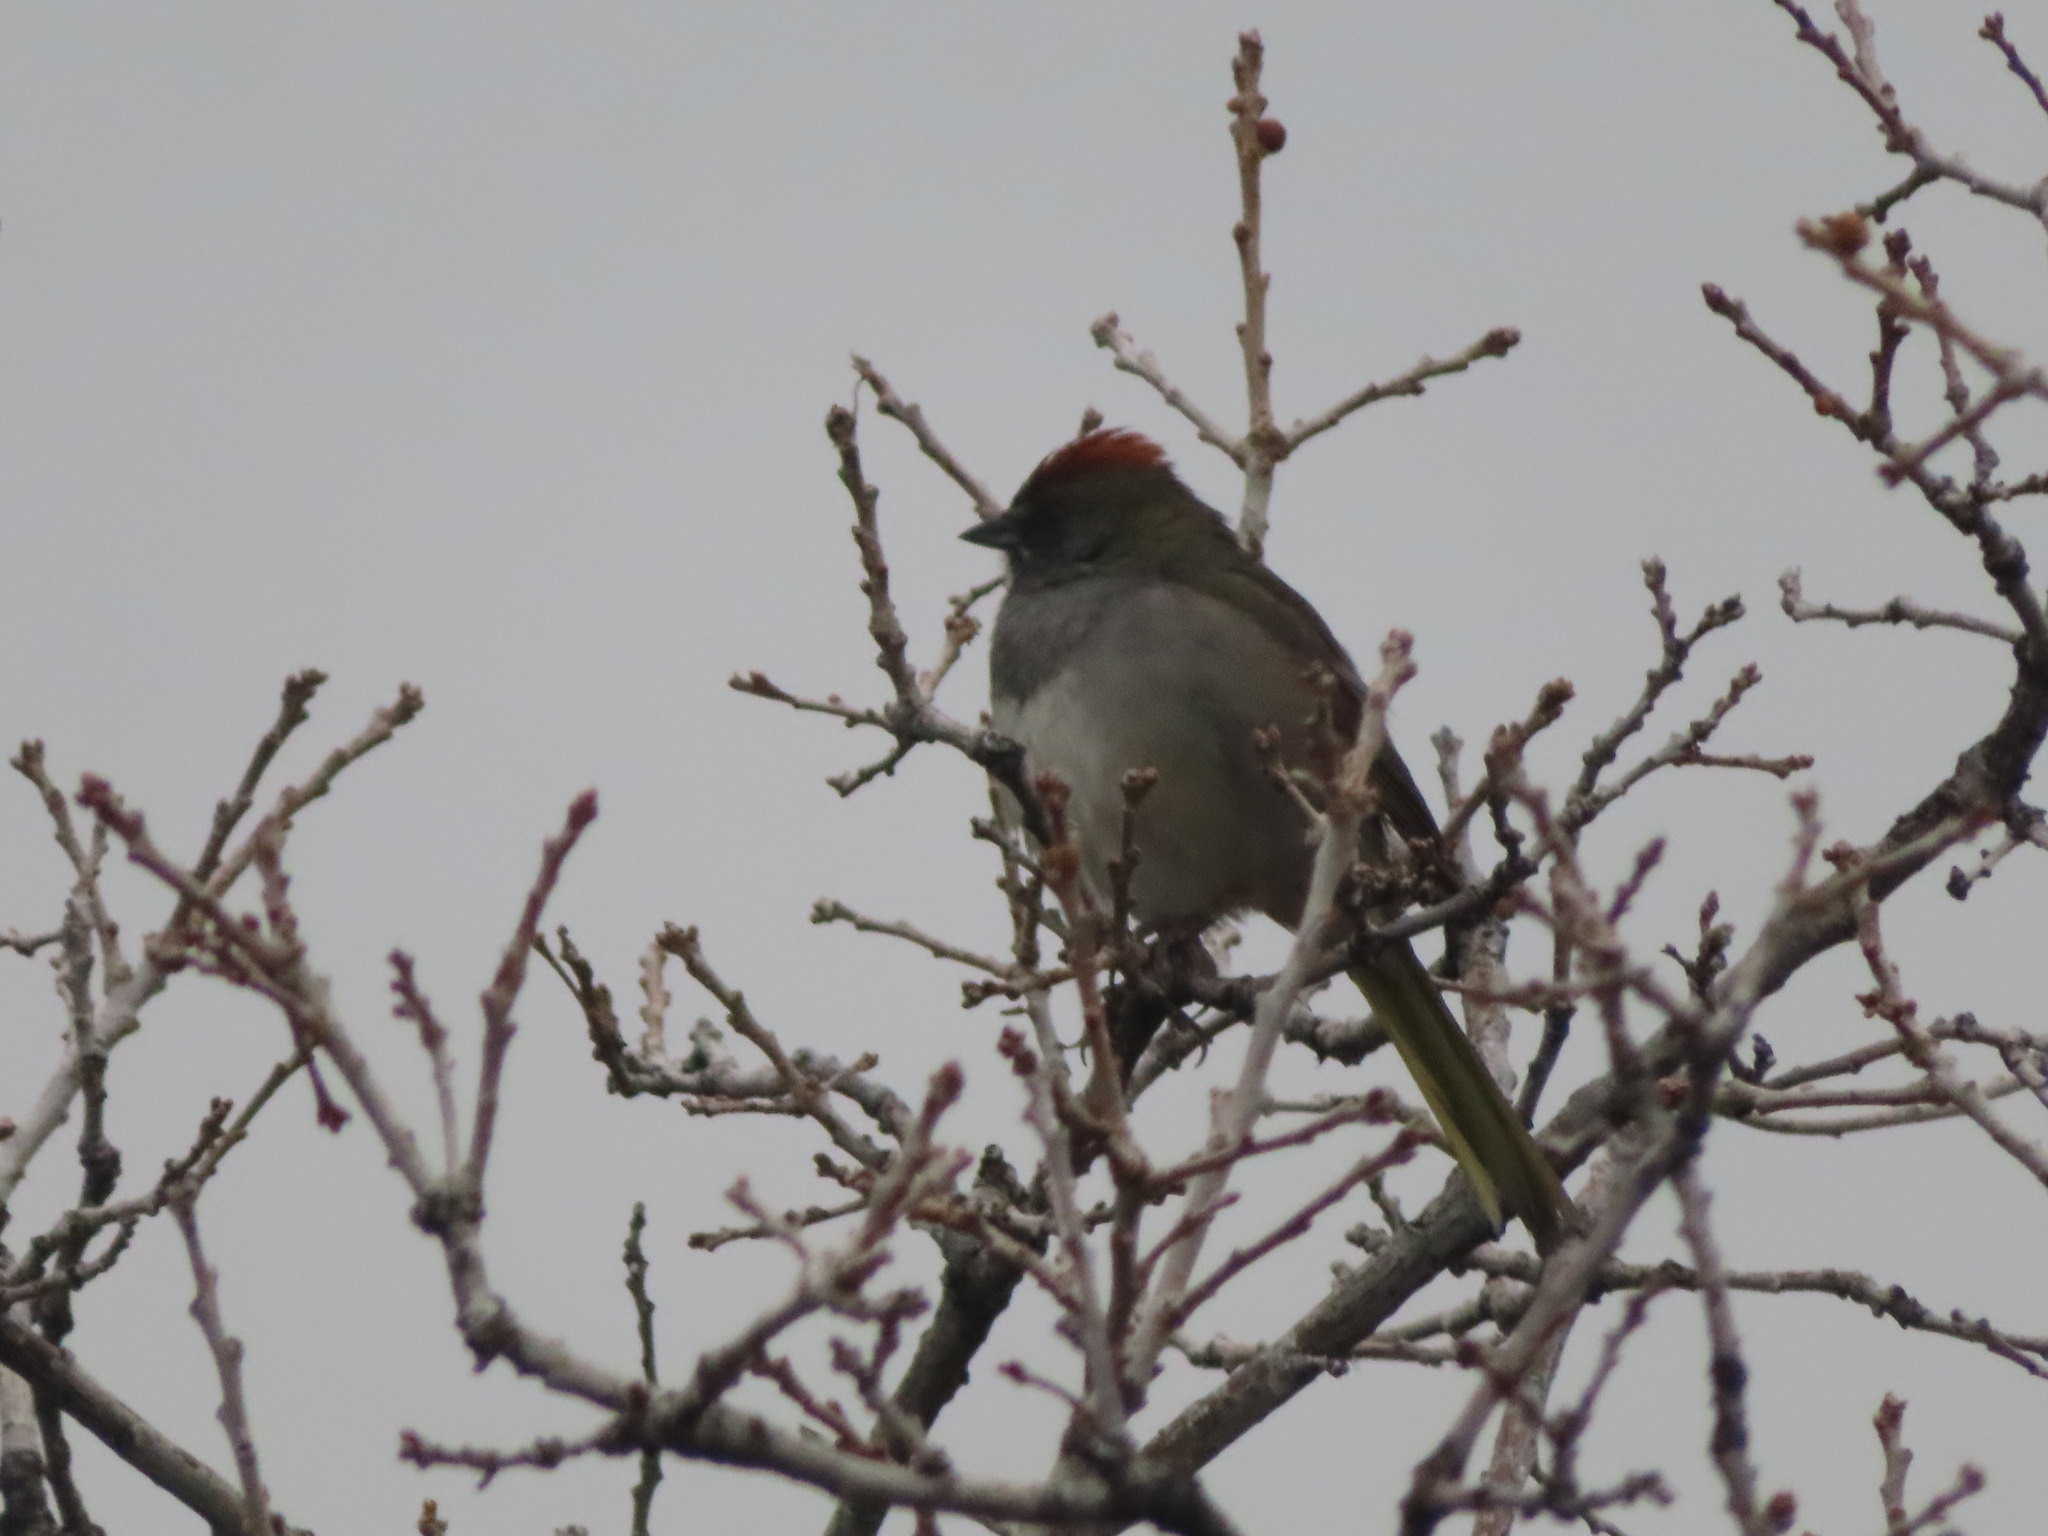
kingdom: Animalia
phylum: Chordata
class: Aves
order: Passeriformes
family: Passerellidae
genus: Pipilo
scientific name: Pipilo chlorurus
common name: Green-tailed towhee
